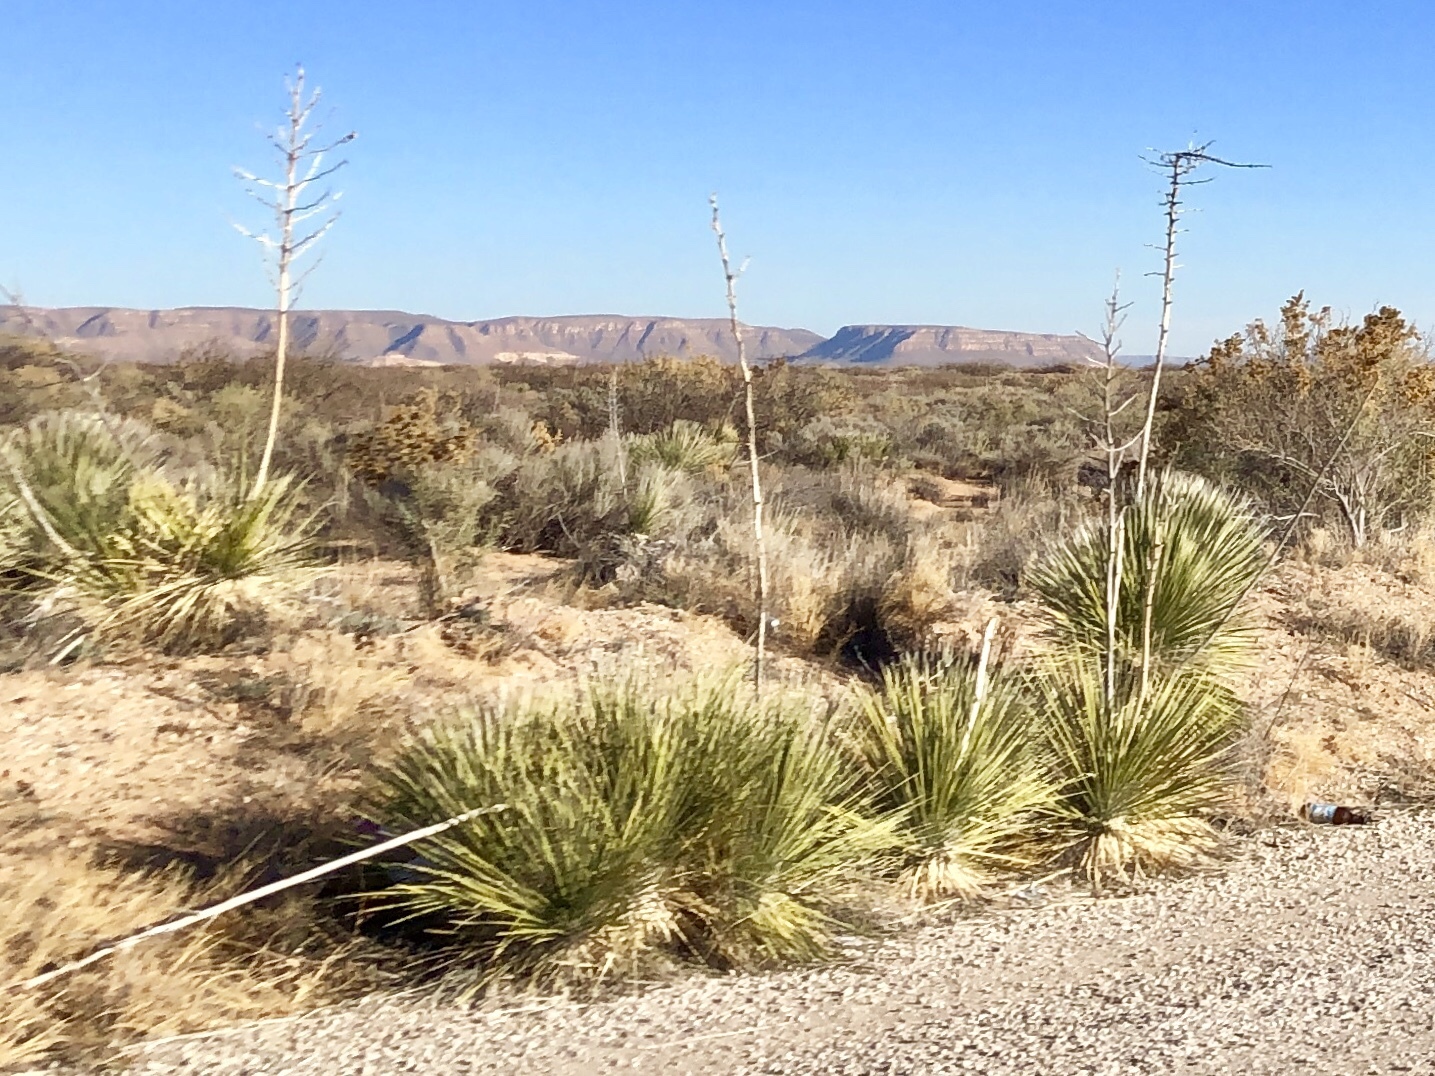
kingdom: Plantae
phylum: Tracheophyta
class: Liliopsida
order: Asparagales
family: Asparagaceae
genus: Yucca
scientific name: Yucca elata
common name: Palmella
